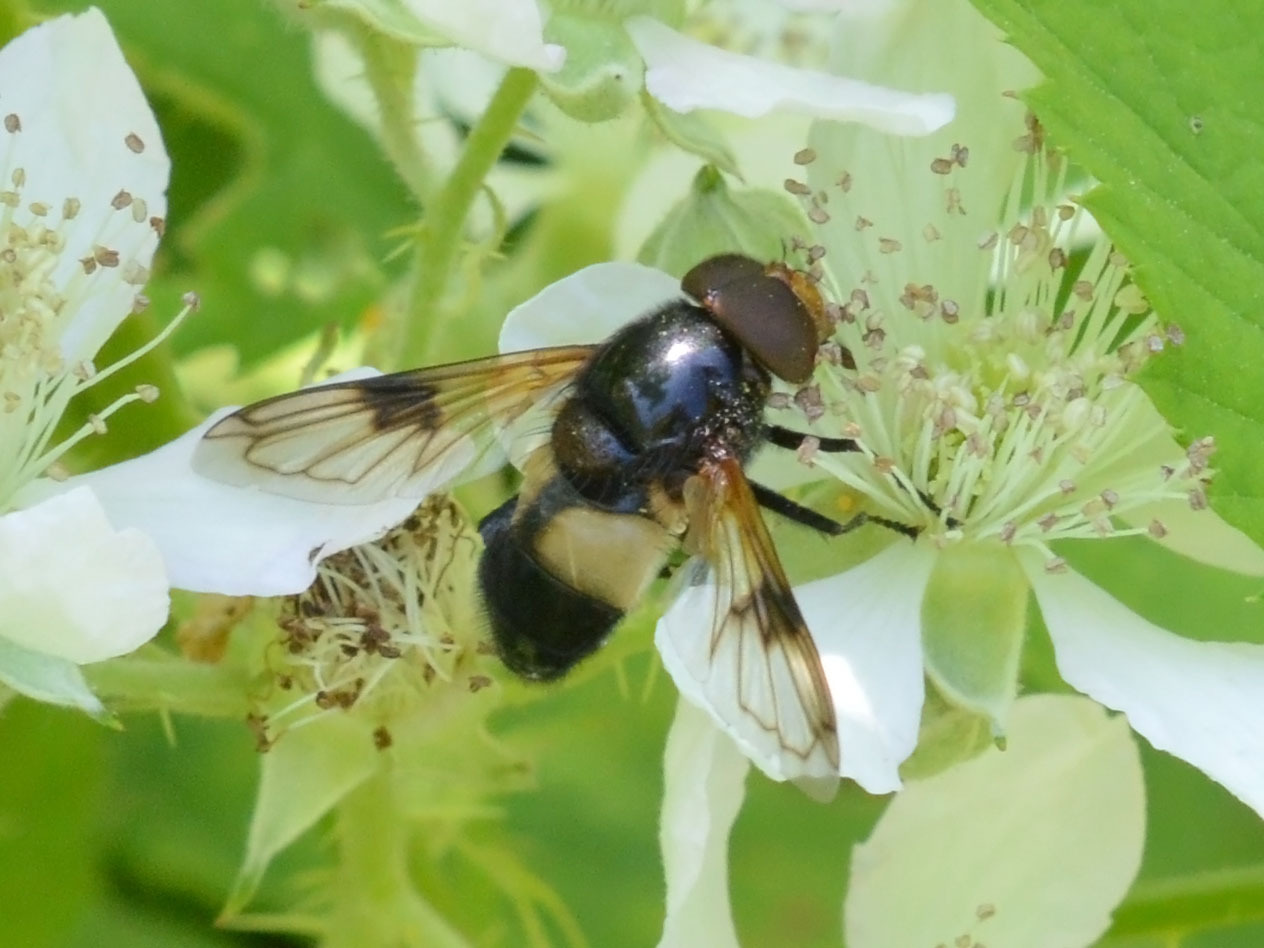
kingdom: Animalia
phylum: Arthropoda
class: Insecta
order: Diptera
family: Syrphidae
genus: Volucella
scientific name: Volucella pellucens
